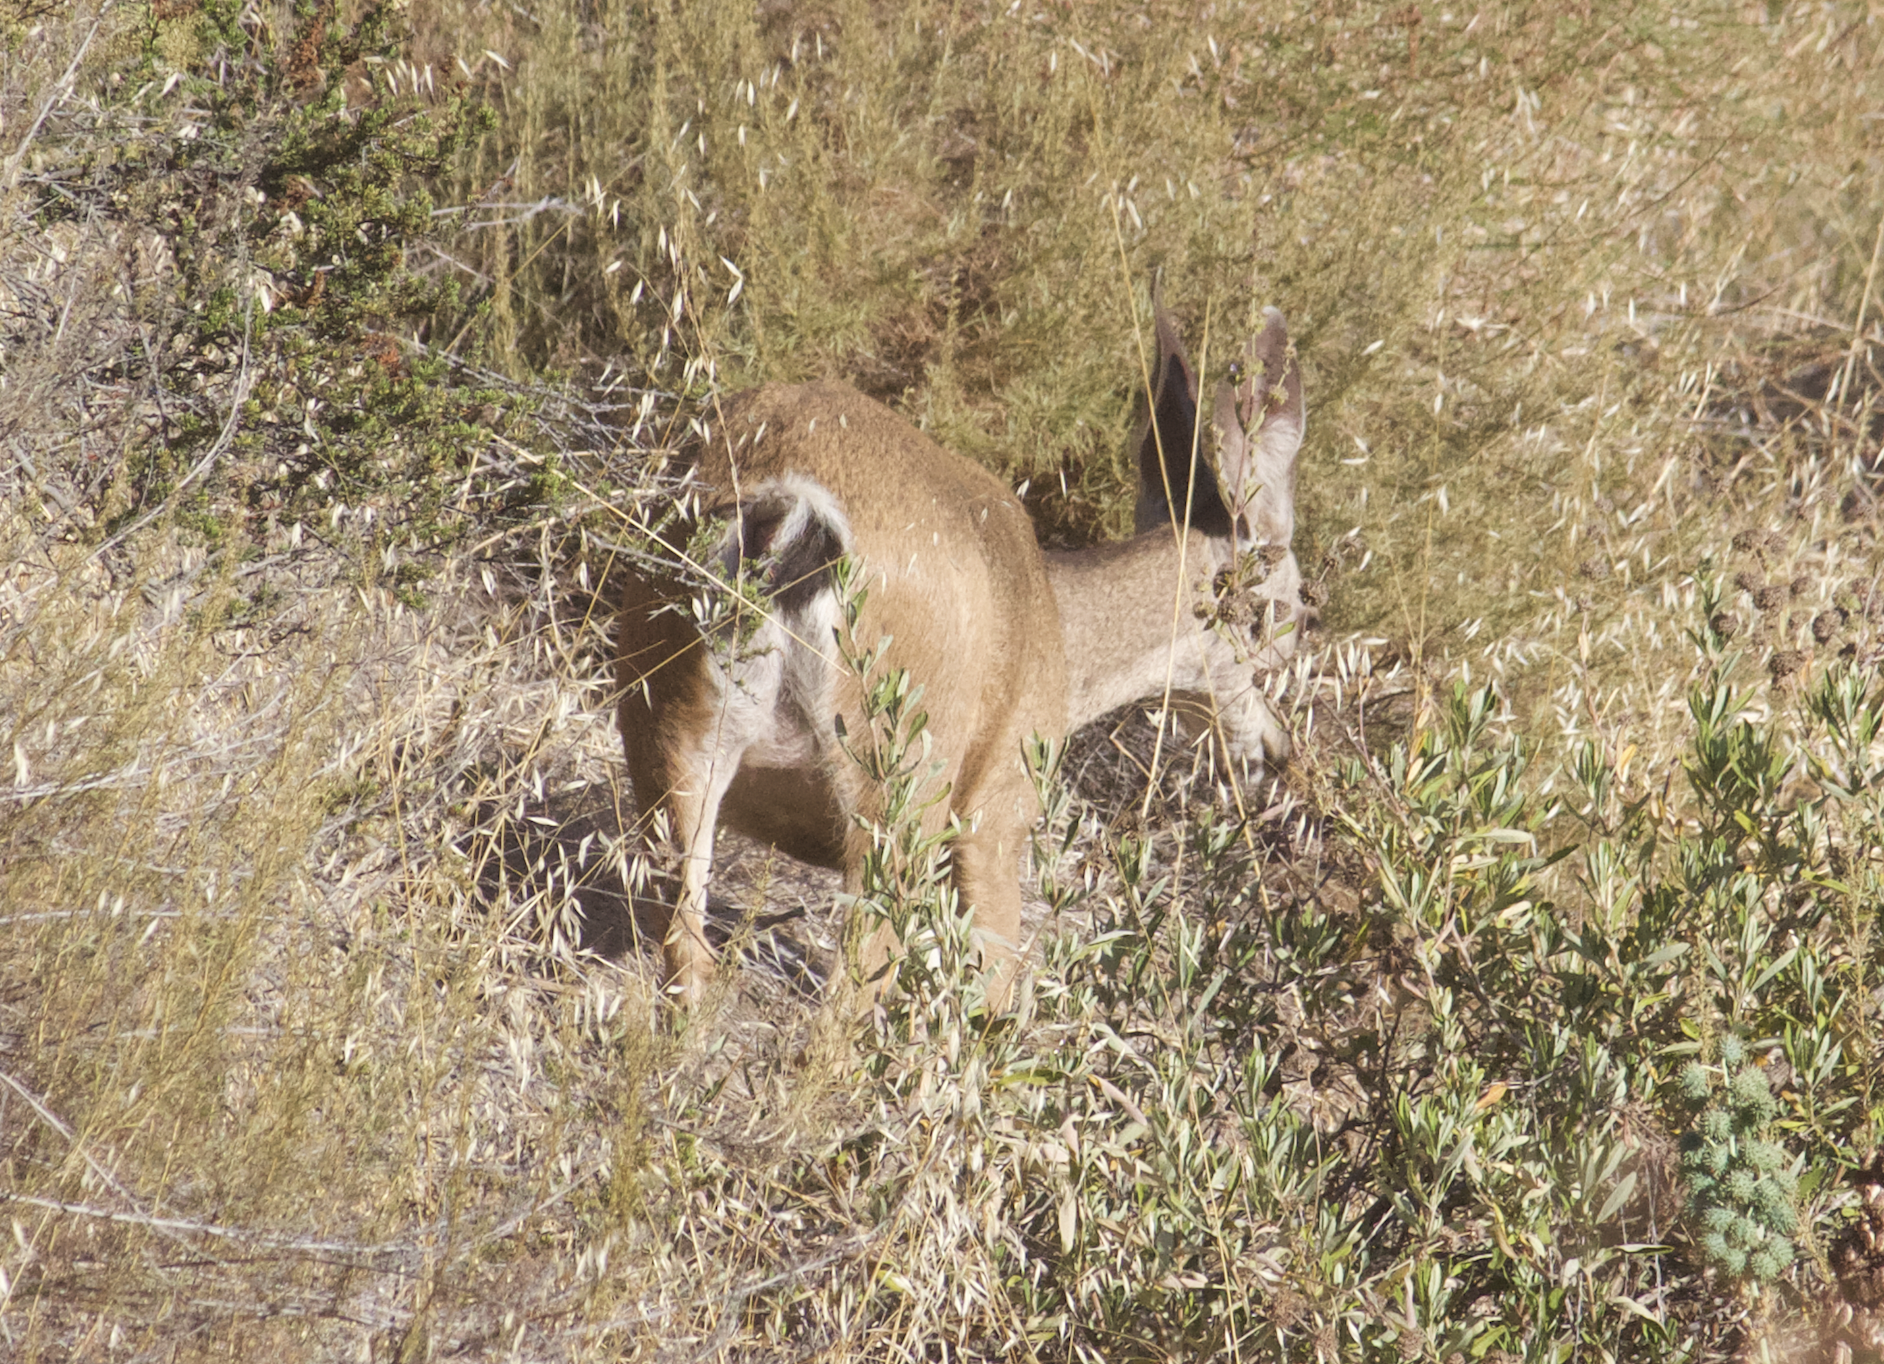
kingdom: Animalia
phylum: Chordata
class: Mammalia
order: Artiodactyla
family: Cervidae
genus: Odocoileus
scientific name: Odocoileus hemionus
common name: Mule deer
